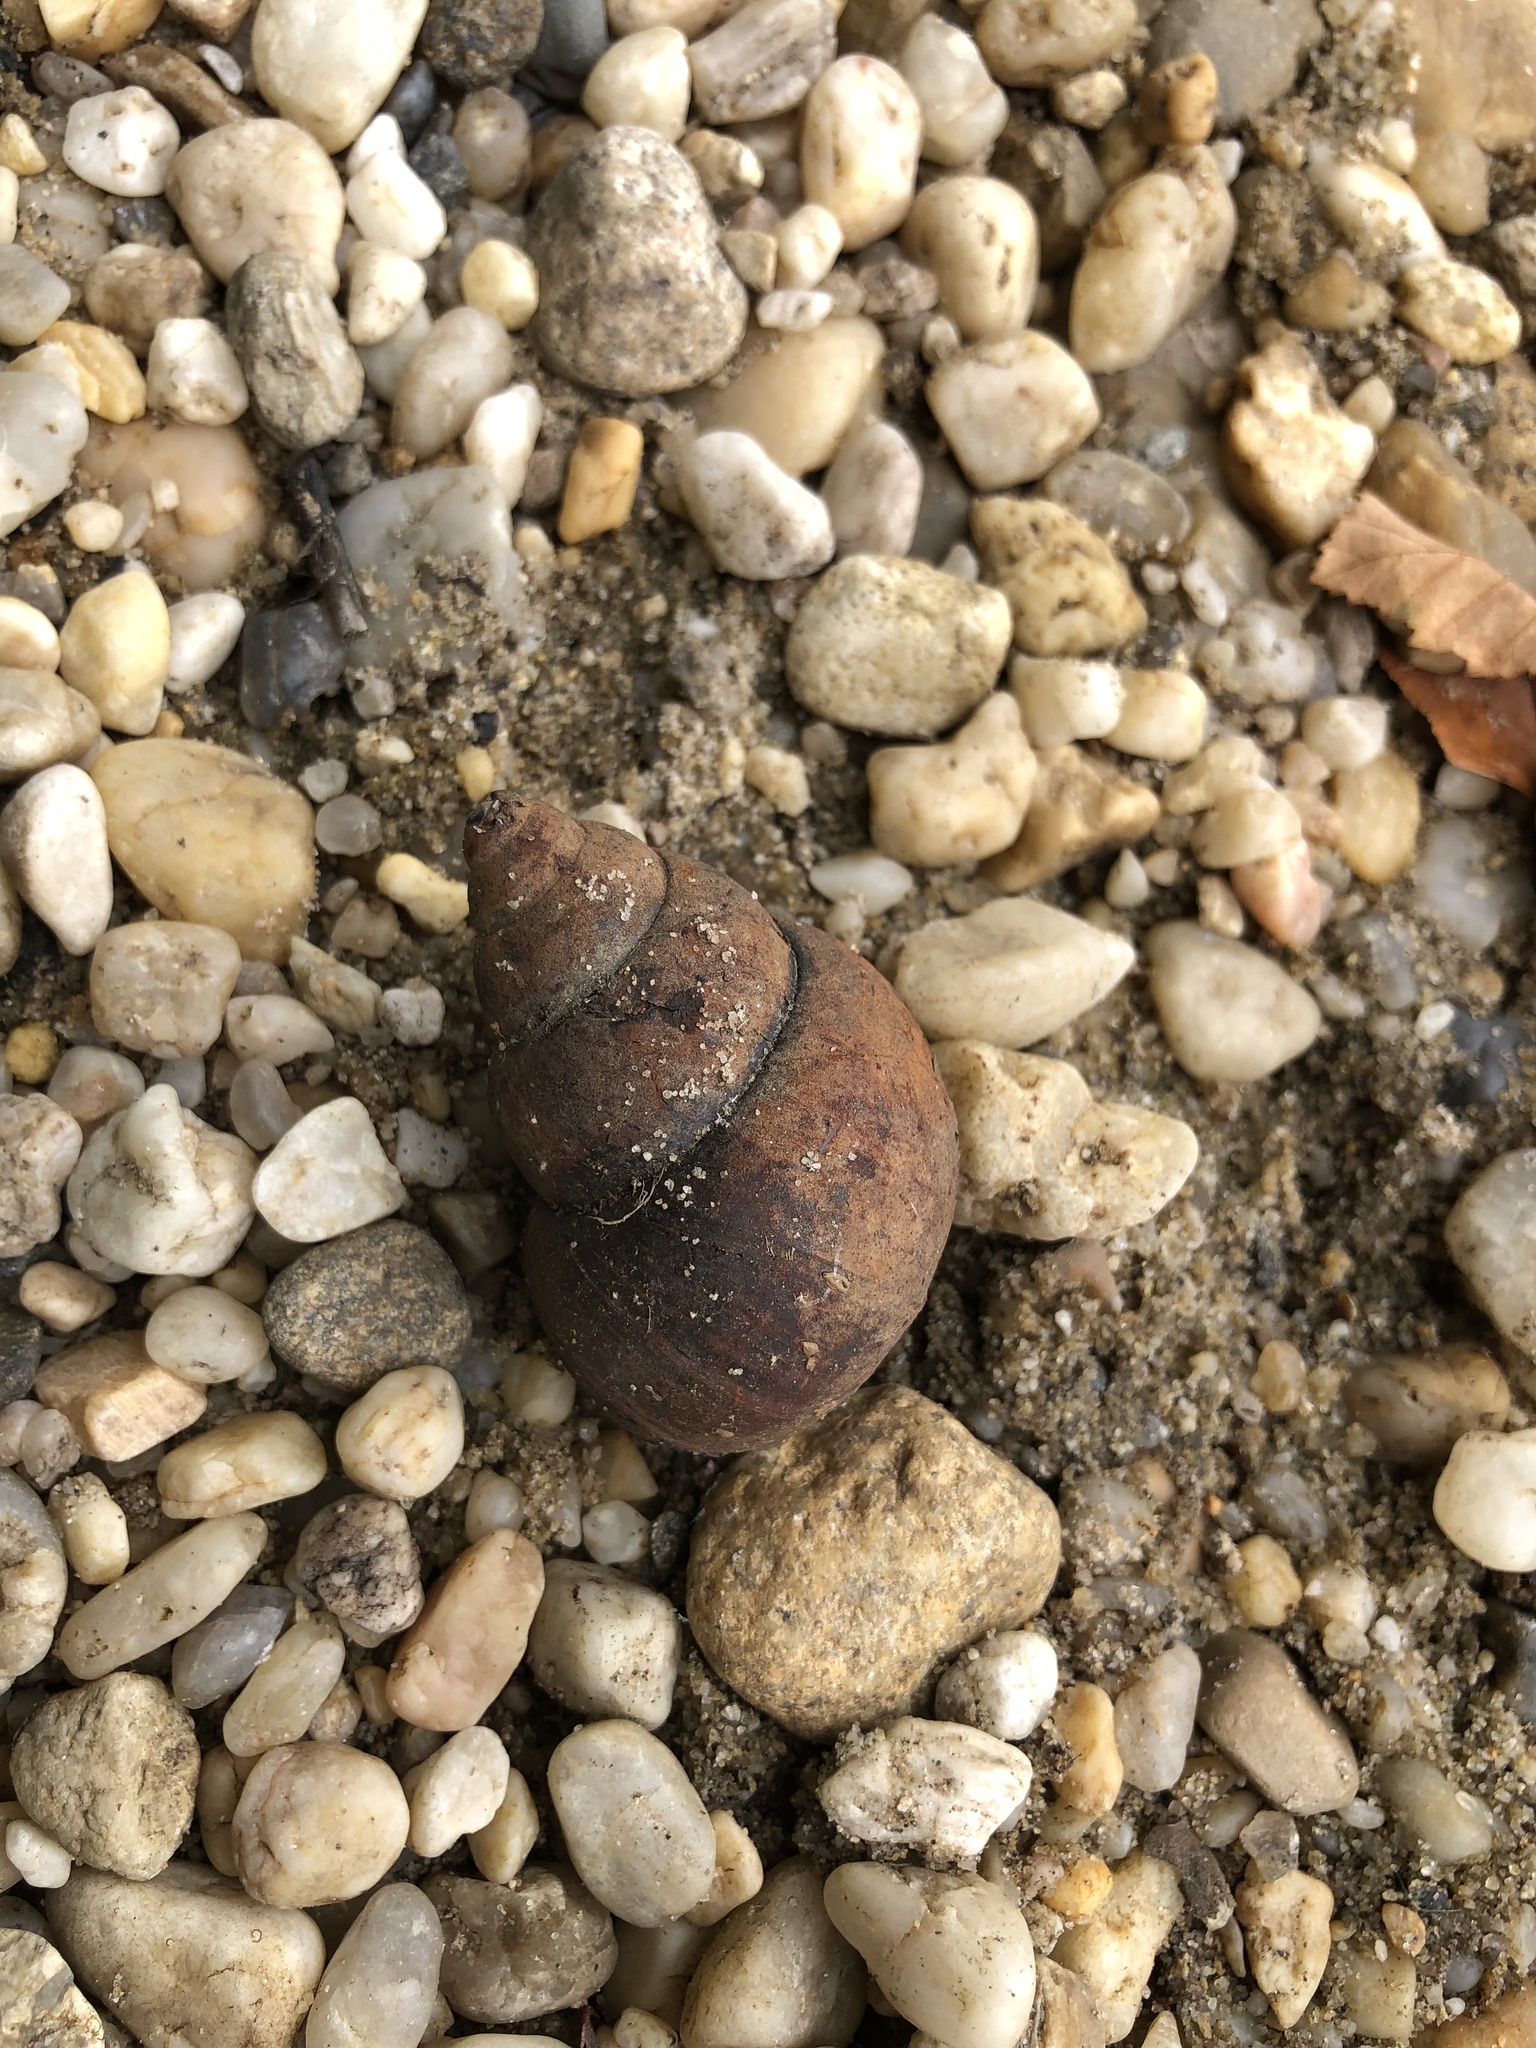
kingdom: Animalia
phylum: Mollusca
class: Gastropoda
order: Architaenioglossa
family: Viviparidae
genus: Cipangopaludina
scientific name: Cipangopaludina chinensis
